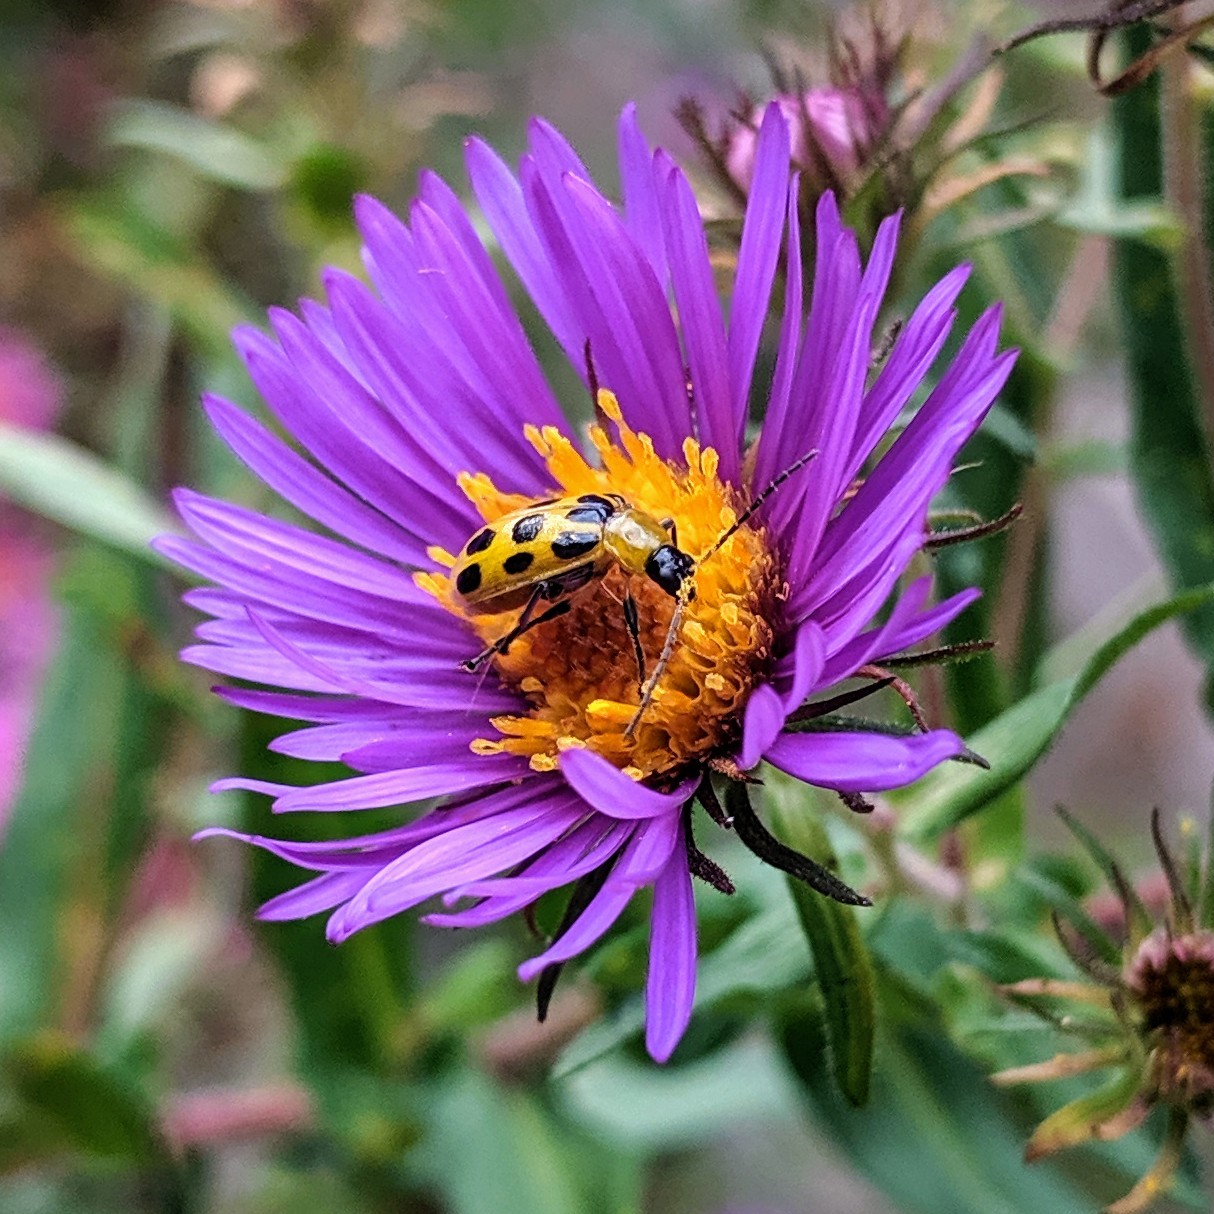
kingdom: Animalia
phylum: Arthropoda
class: Insecta
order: Coleoptera
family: Chrysomelidae
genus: Diabrotica
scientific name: Diabrotica undecimpunctata
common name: Spotted cucumber beetle
